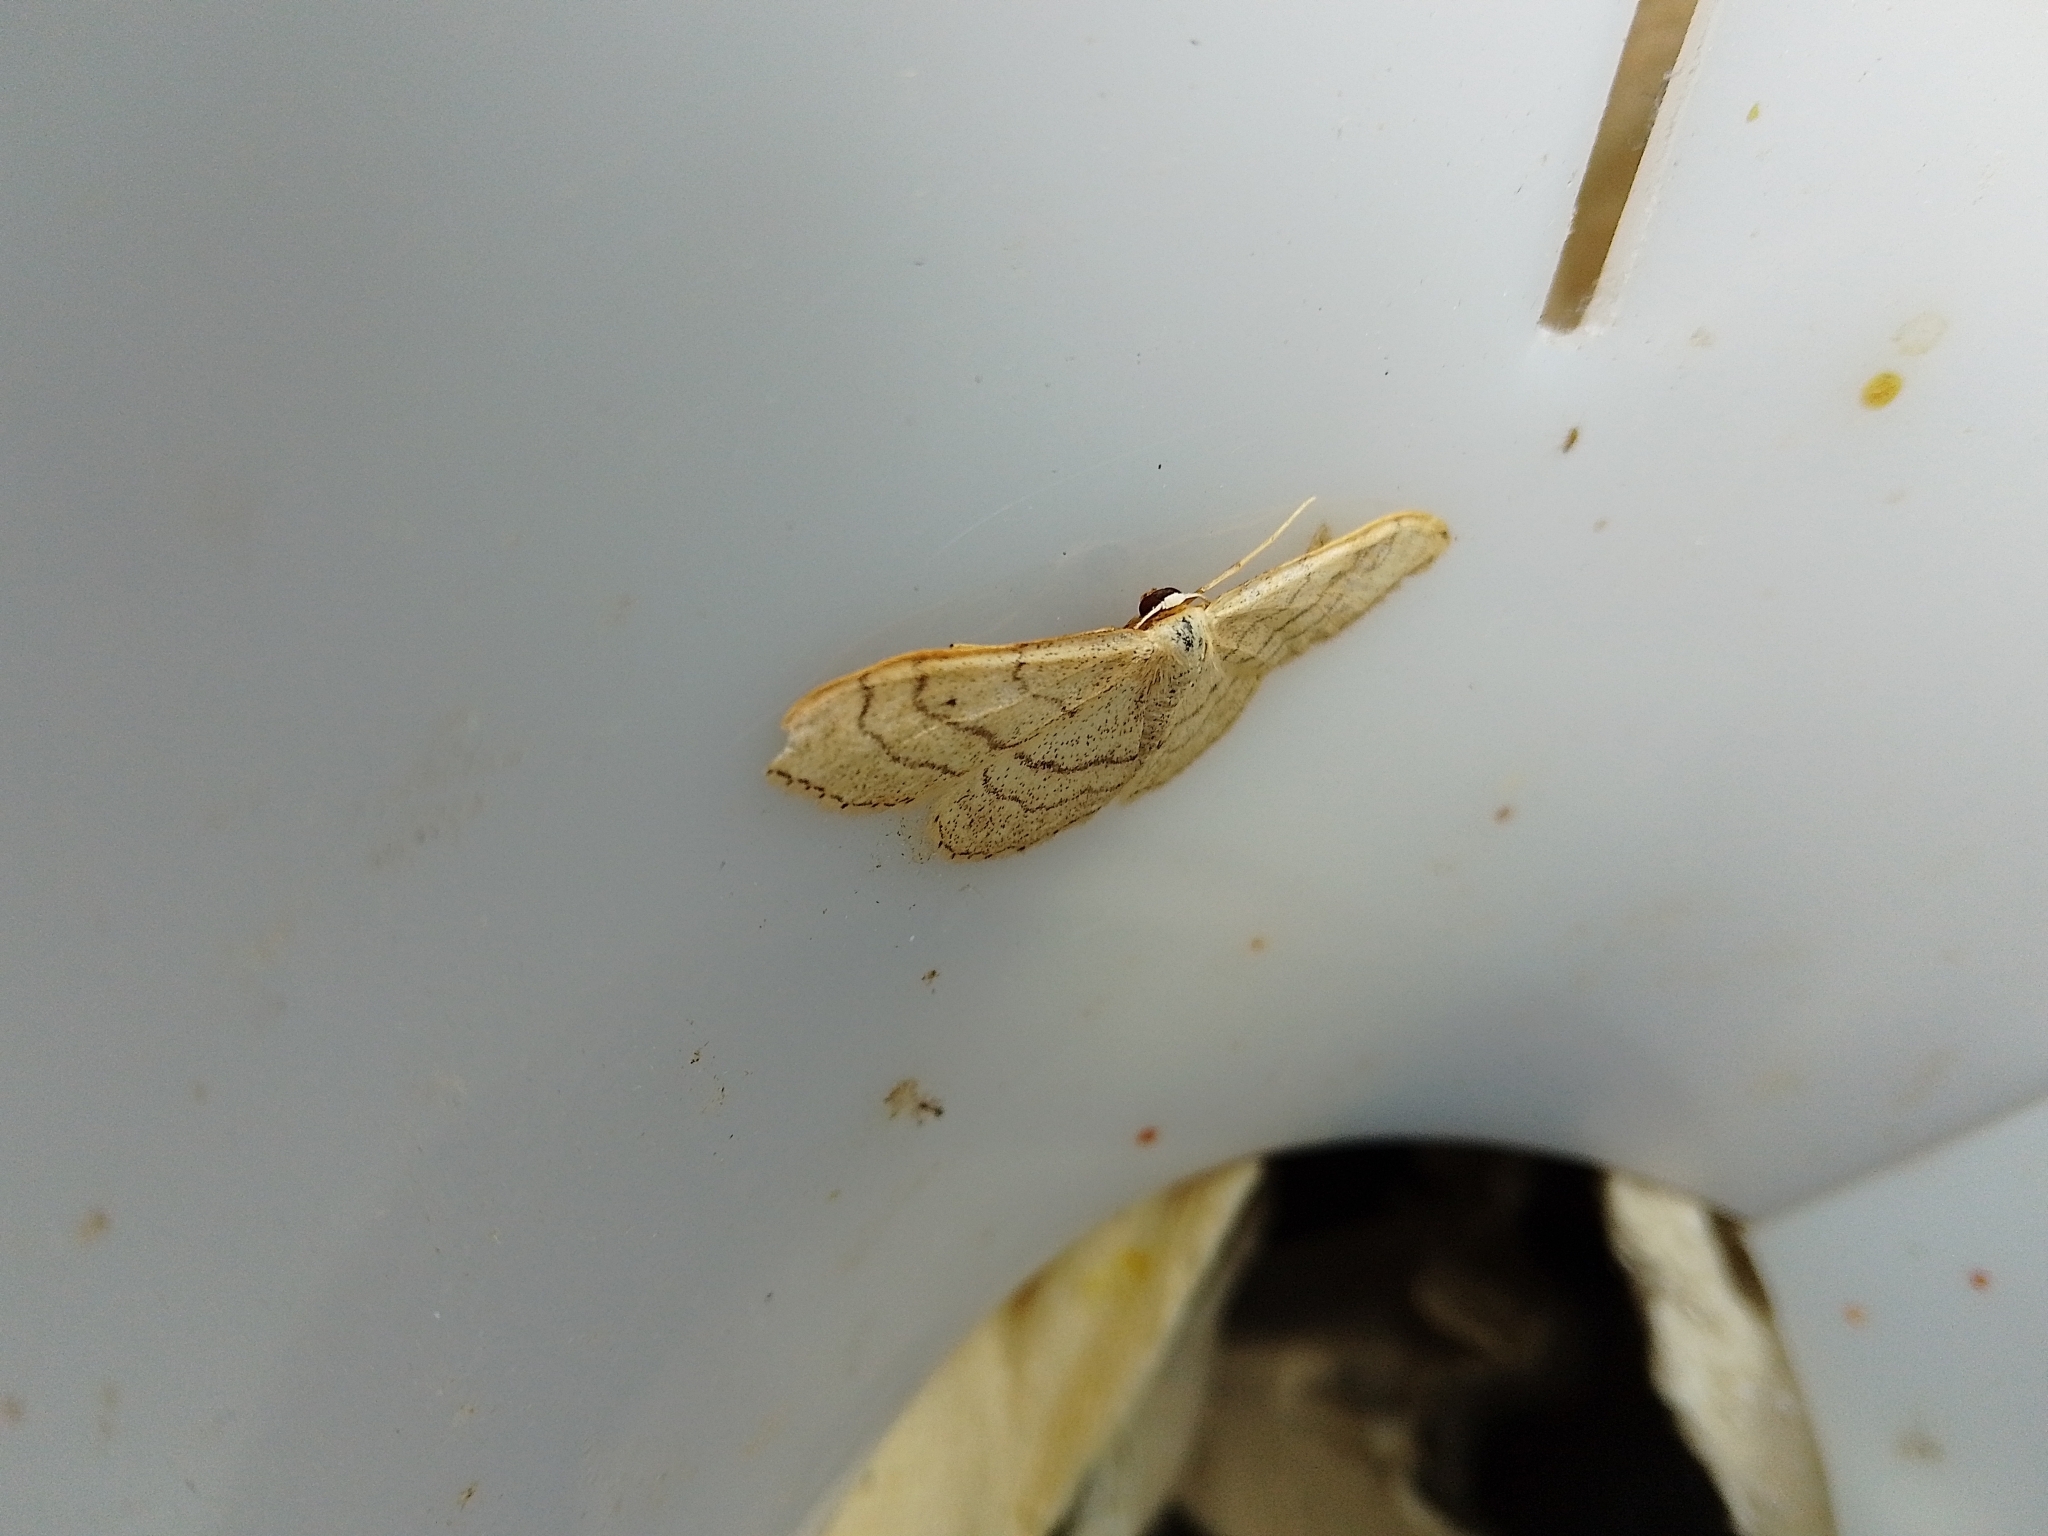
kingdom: Animalia
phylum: Arthropoda
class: Insecta
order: Lepidoptera
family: Geometridae
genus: Idaea
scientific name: Idaea aversata
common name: Riband wave
